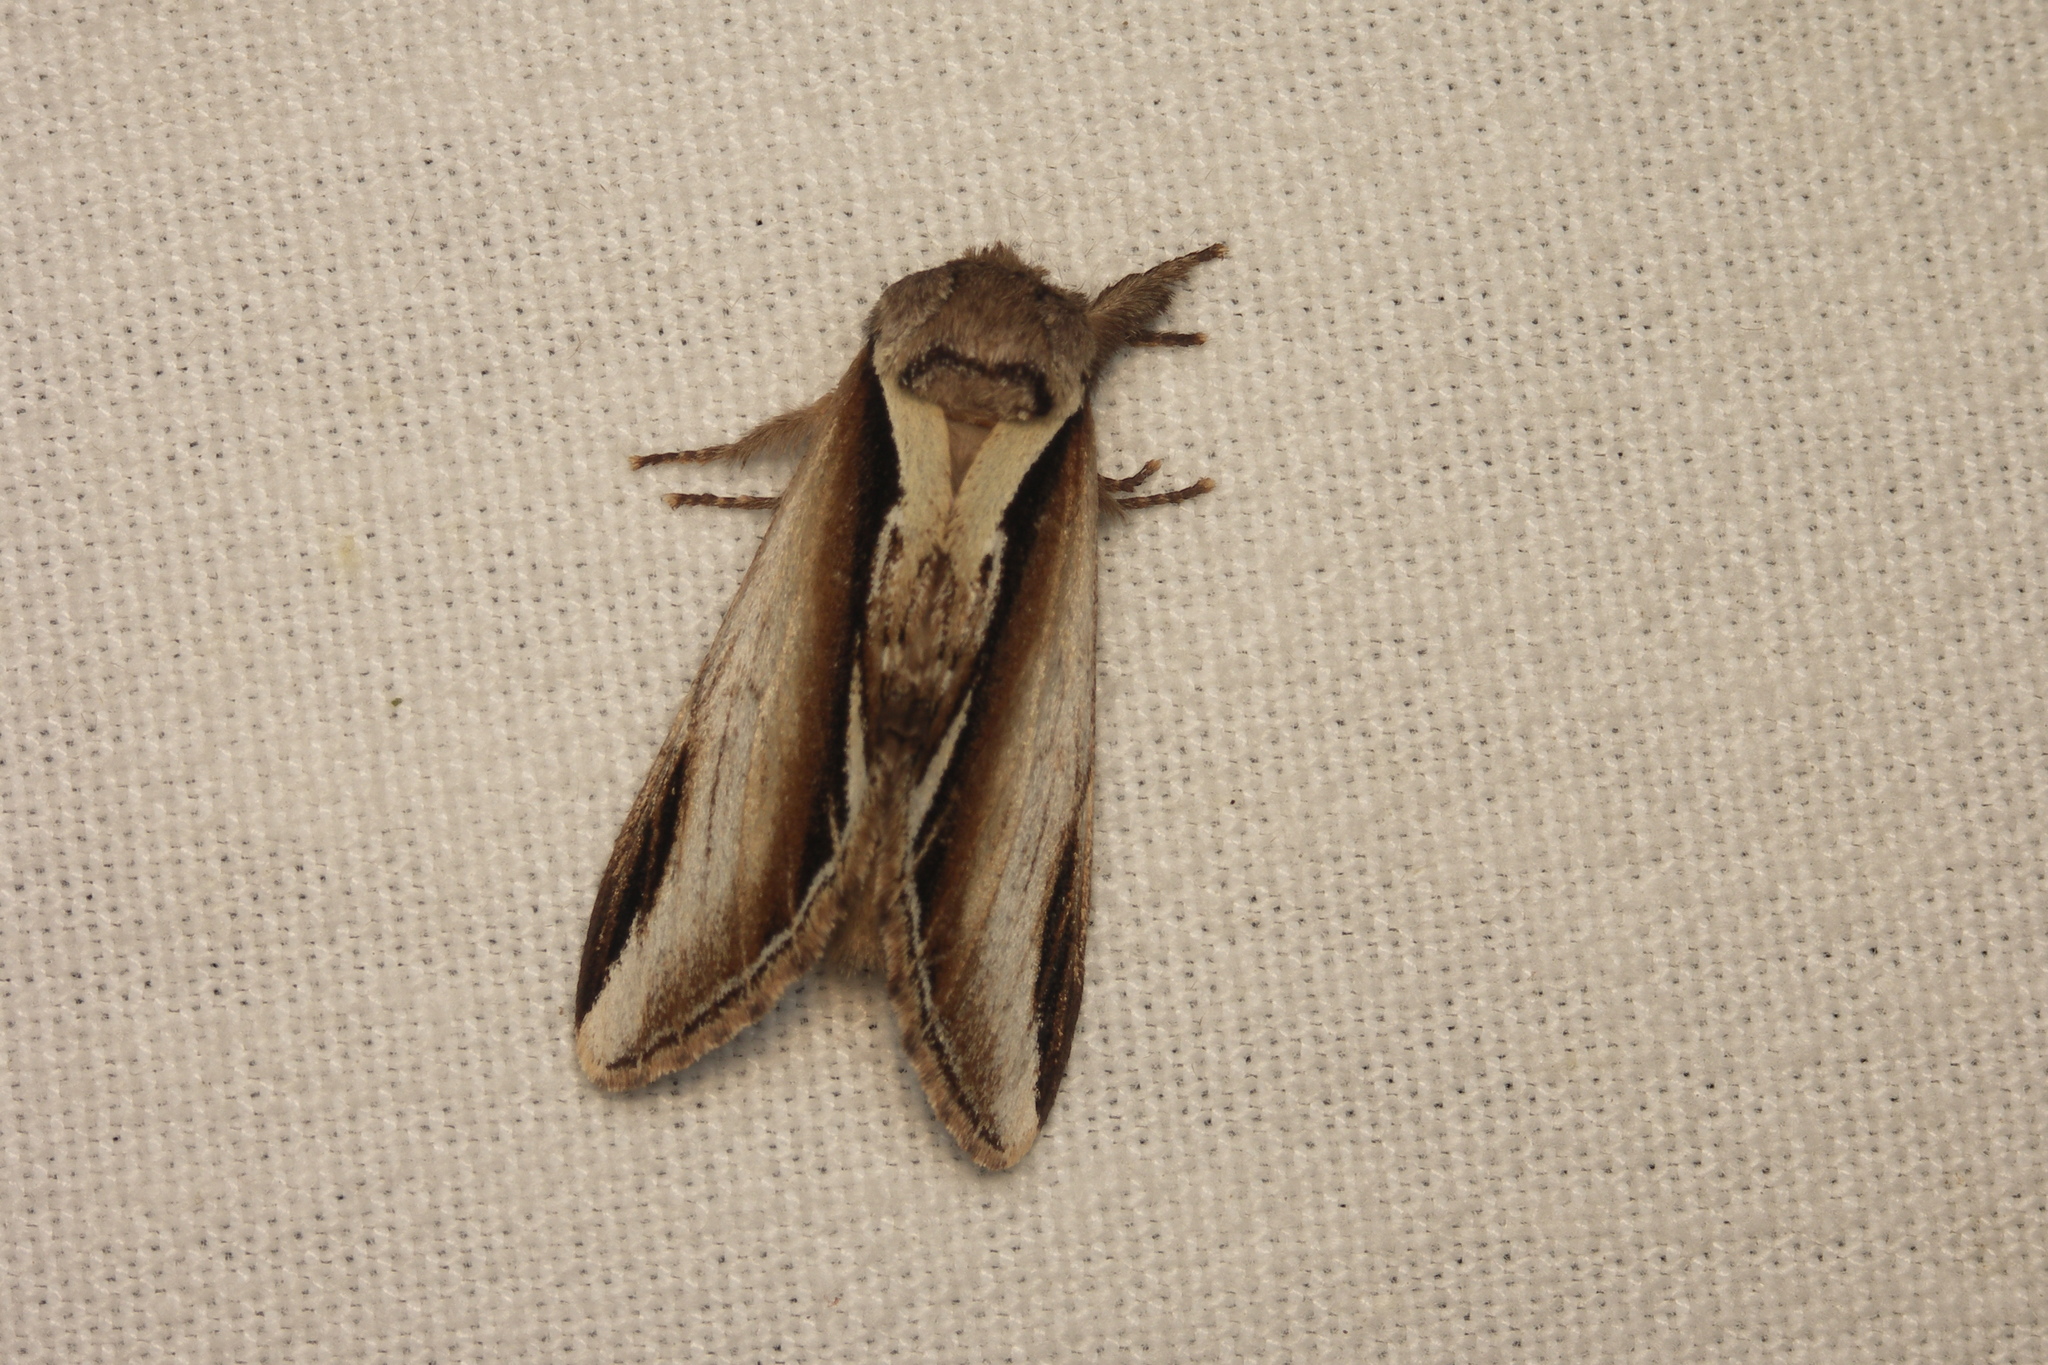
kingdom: Animalia
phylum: Arthropoda
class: Insecta
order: Lepidoptera
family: Notodontidae
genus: Pheosia
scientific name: Pheosia gnoma
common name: Lesser swallow prominent
